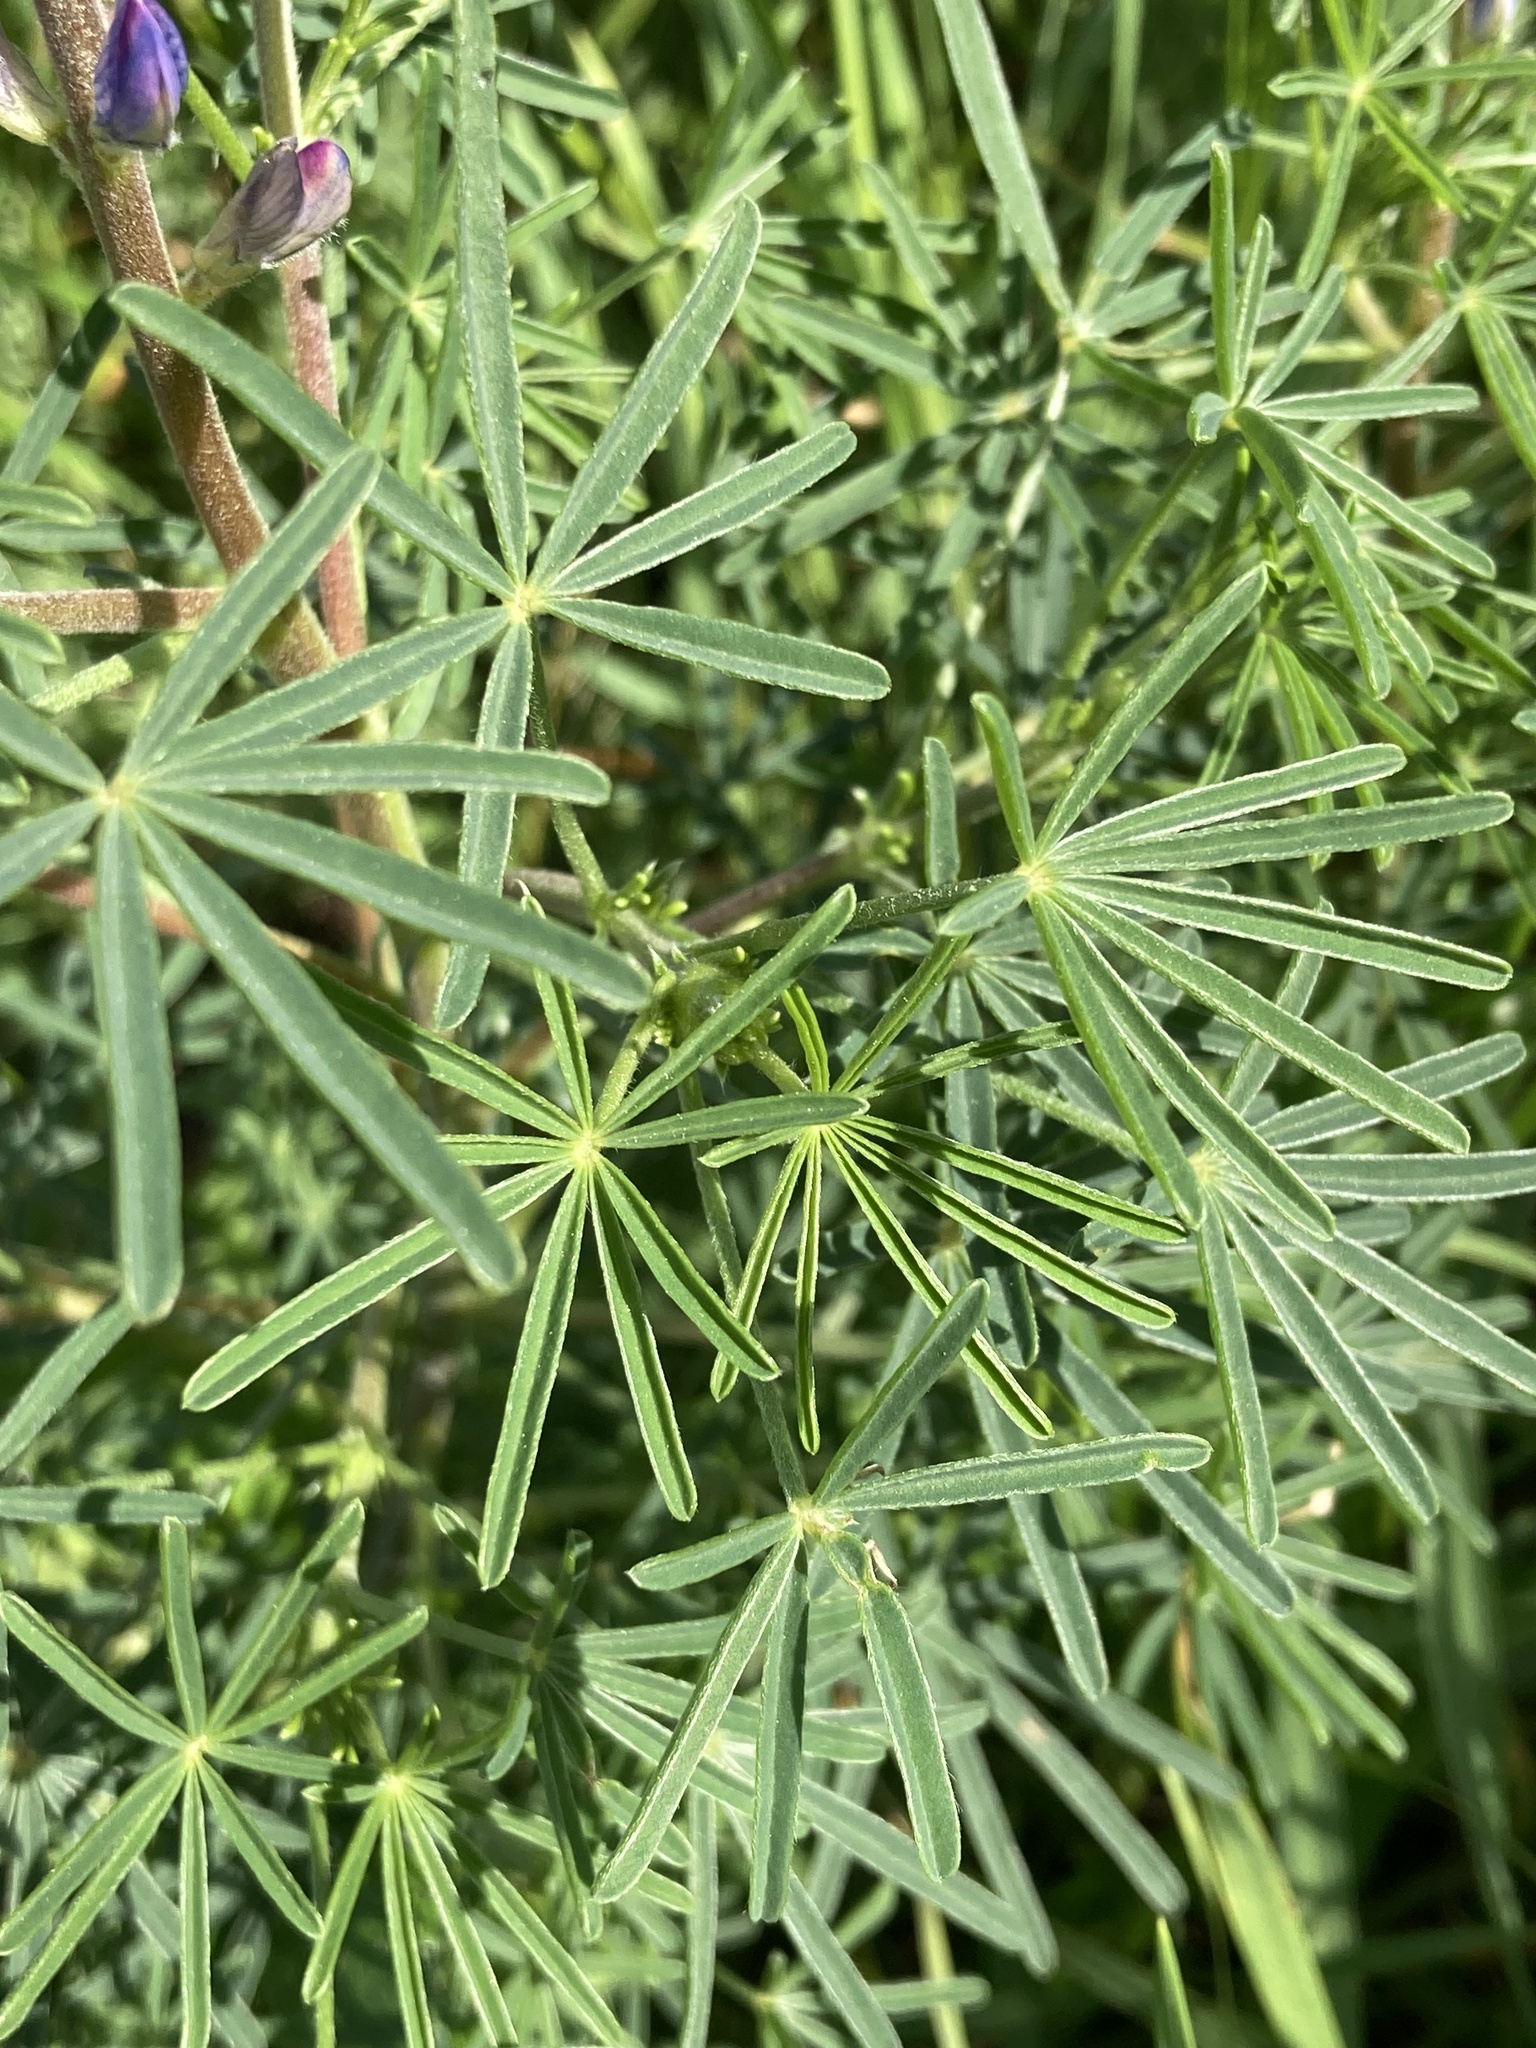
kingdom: Plantae
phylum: Tracheophyta
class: Magnoliopsida
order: Fabales
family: Fabaceae
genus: Lupinus
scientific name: Lupinus angustifolius
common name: Narrow-leaved lupin
